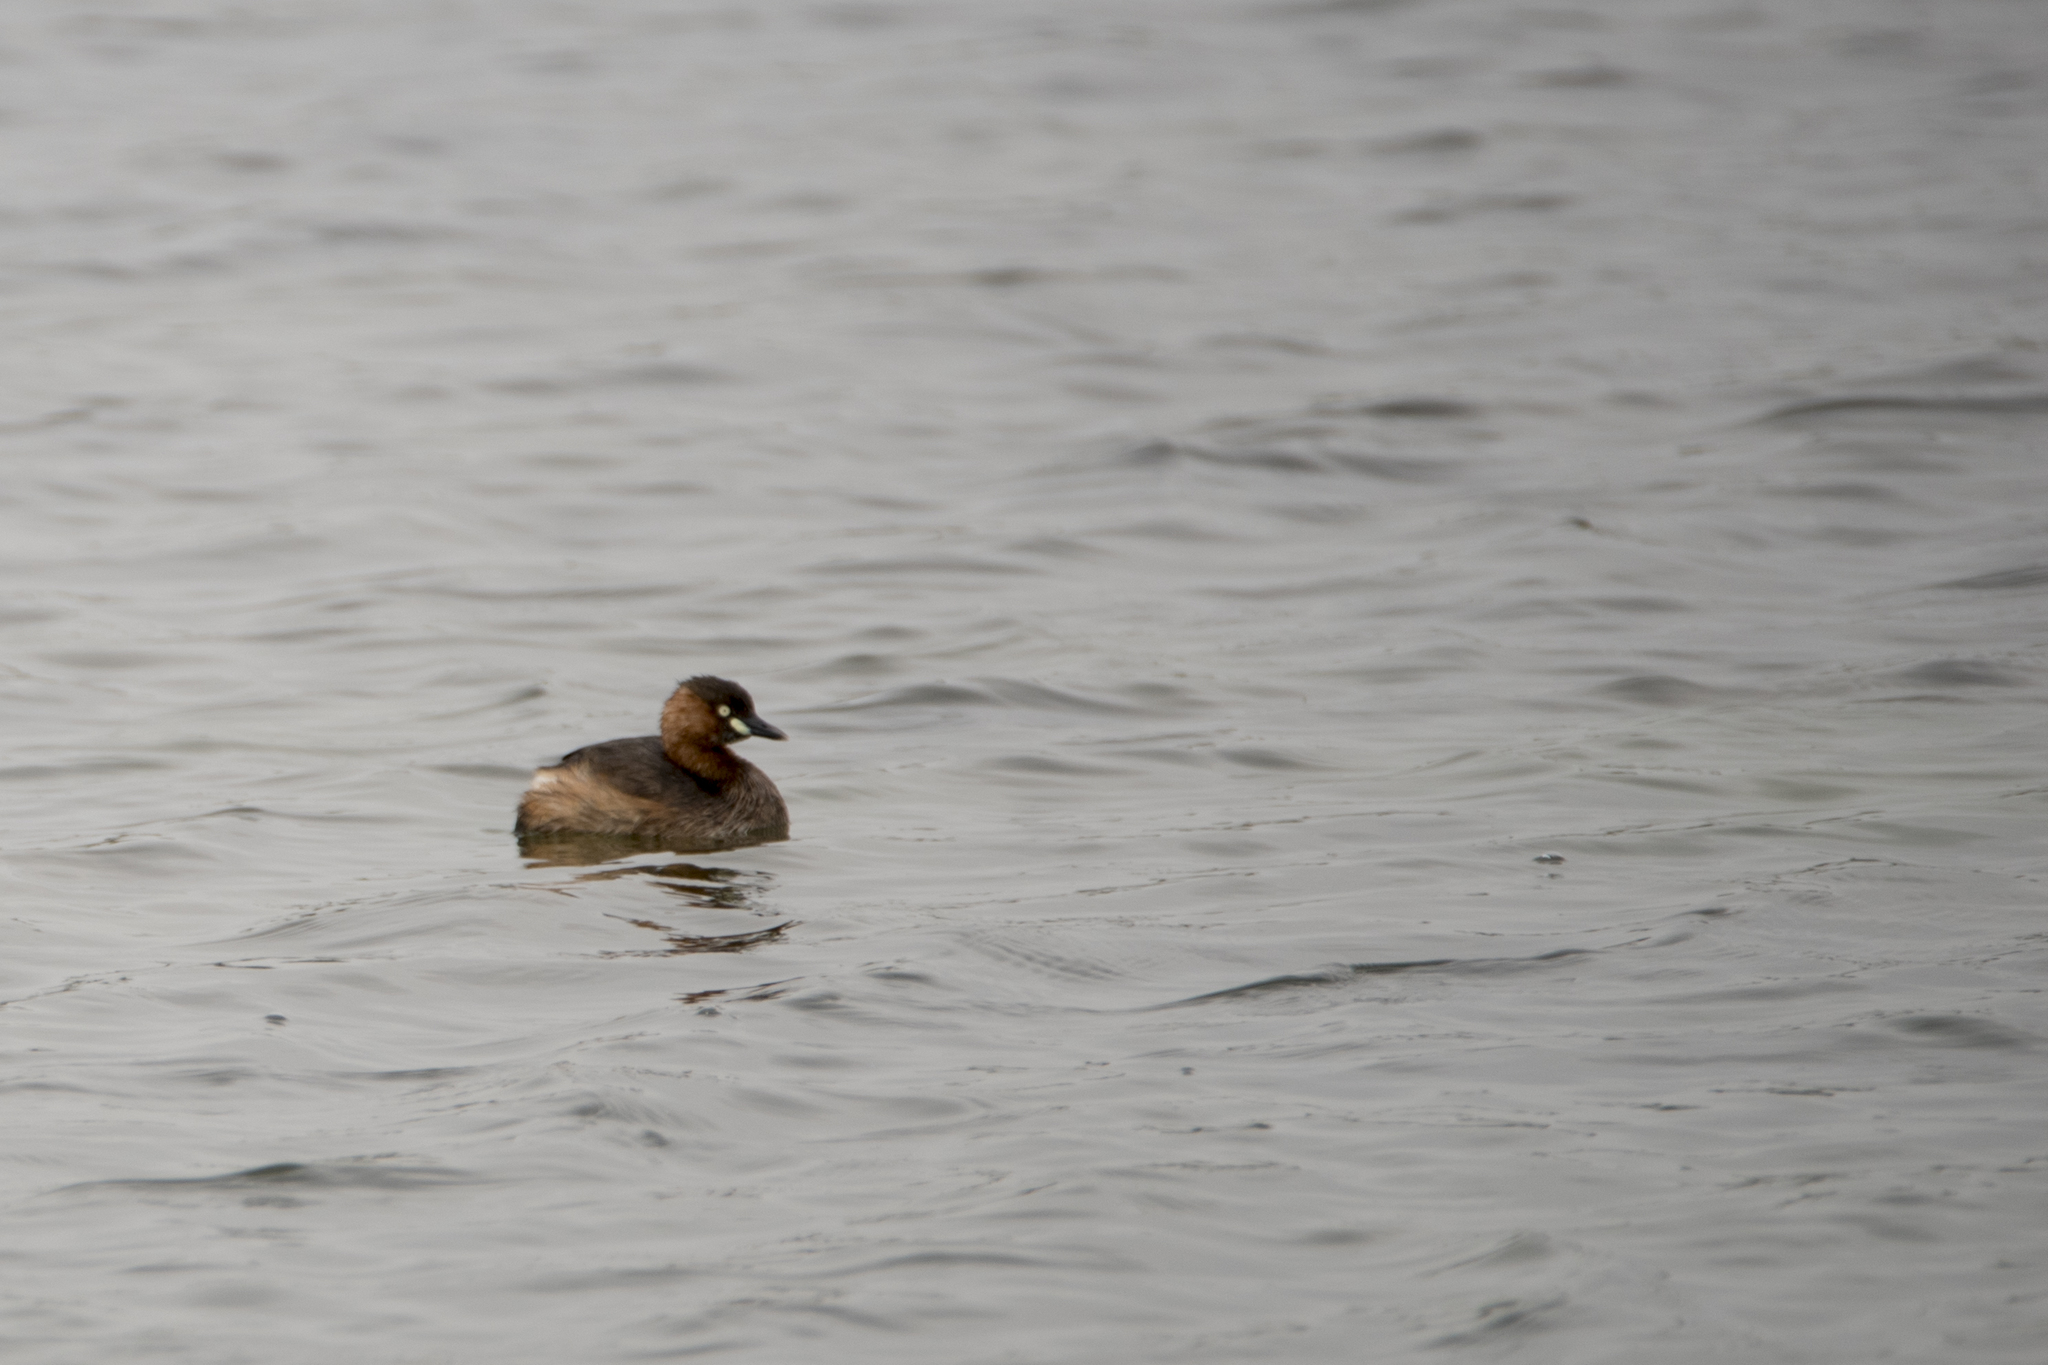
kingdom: Animalia
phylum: Chordata
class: Aves
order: Podicipediformes
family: Podicipedidae
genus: Tachybaptus
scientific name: Tachybaptus ruficollis
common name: Little grebe
